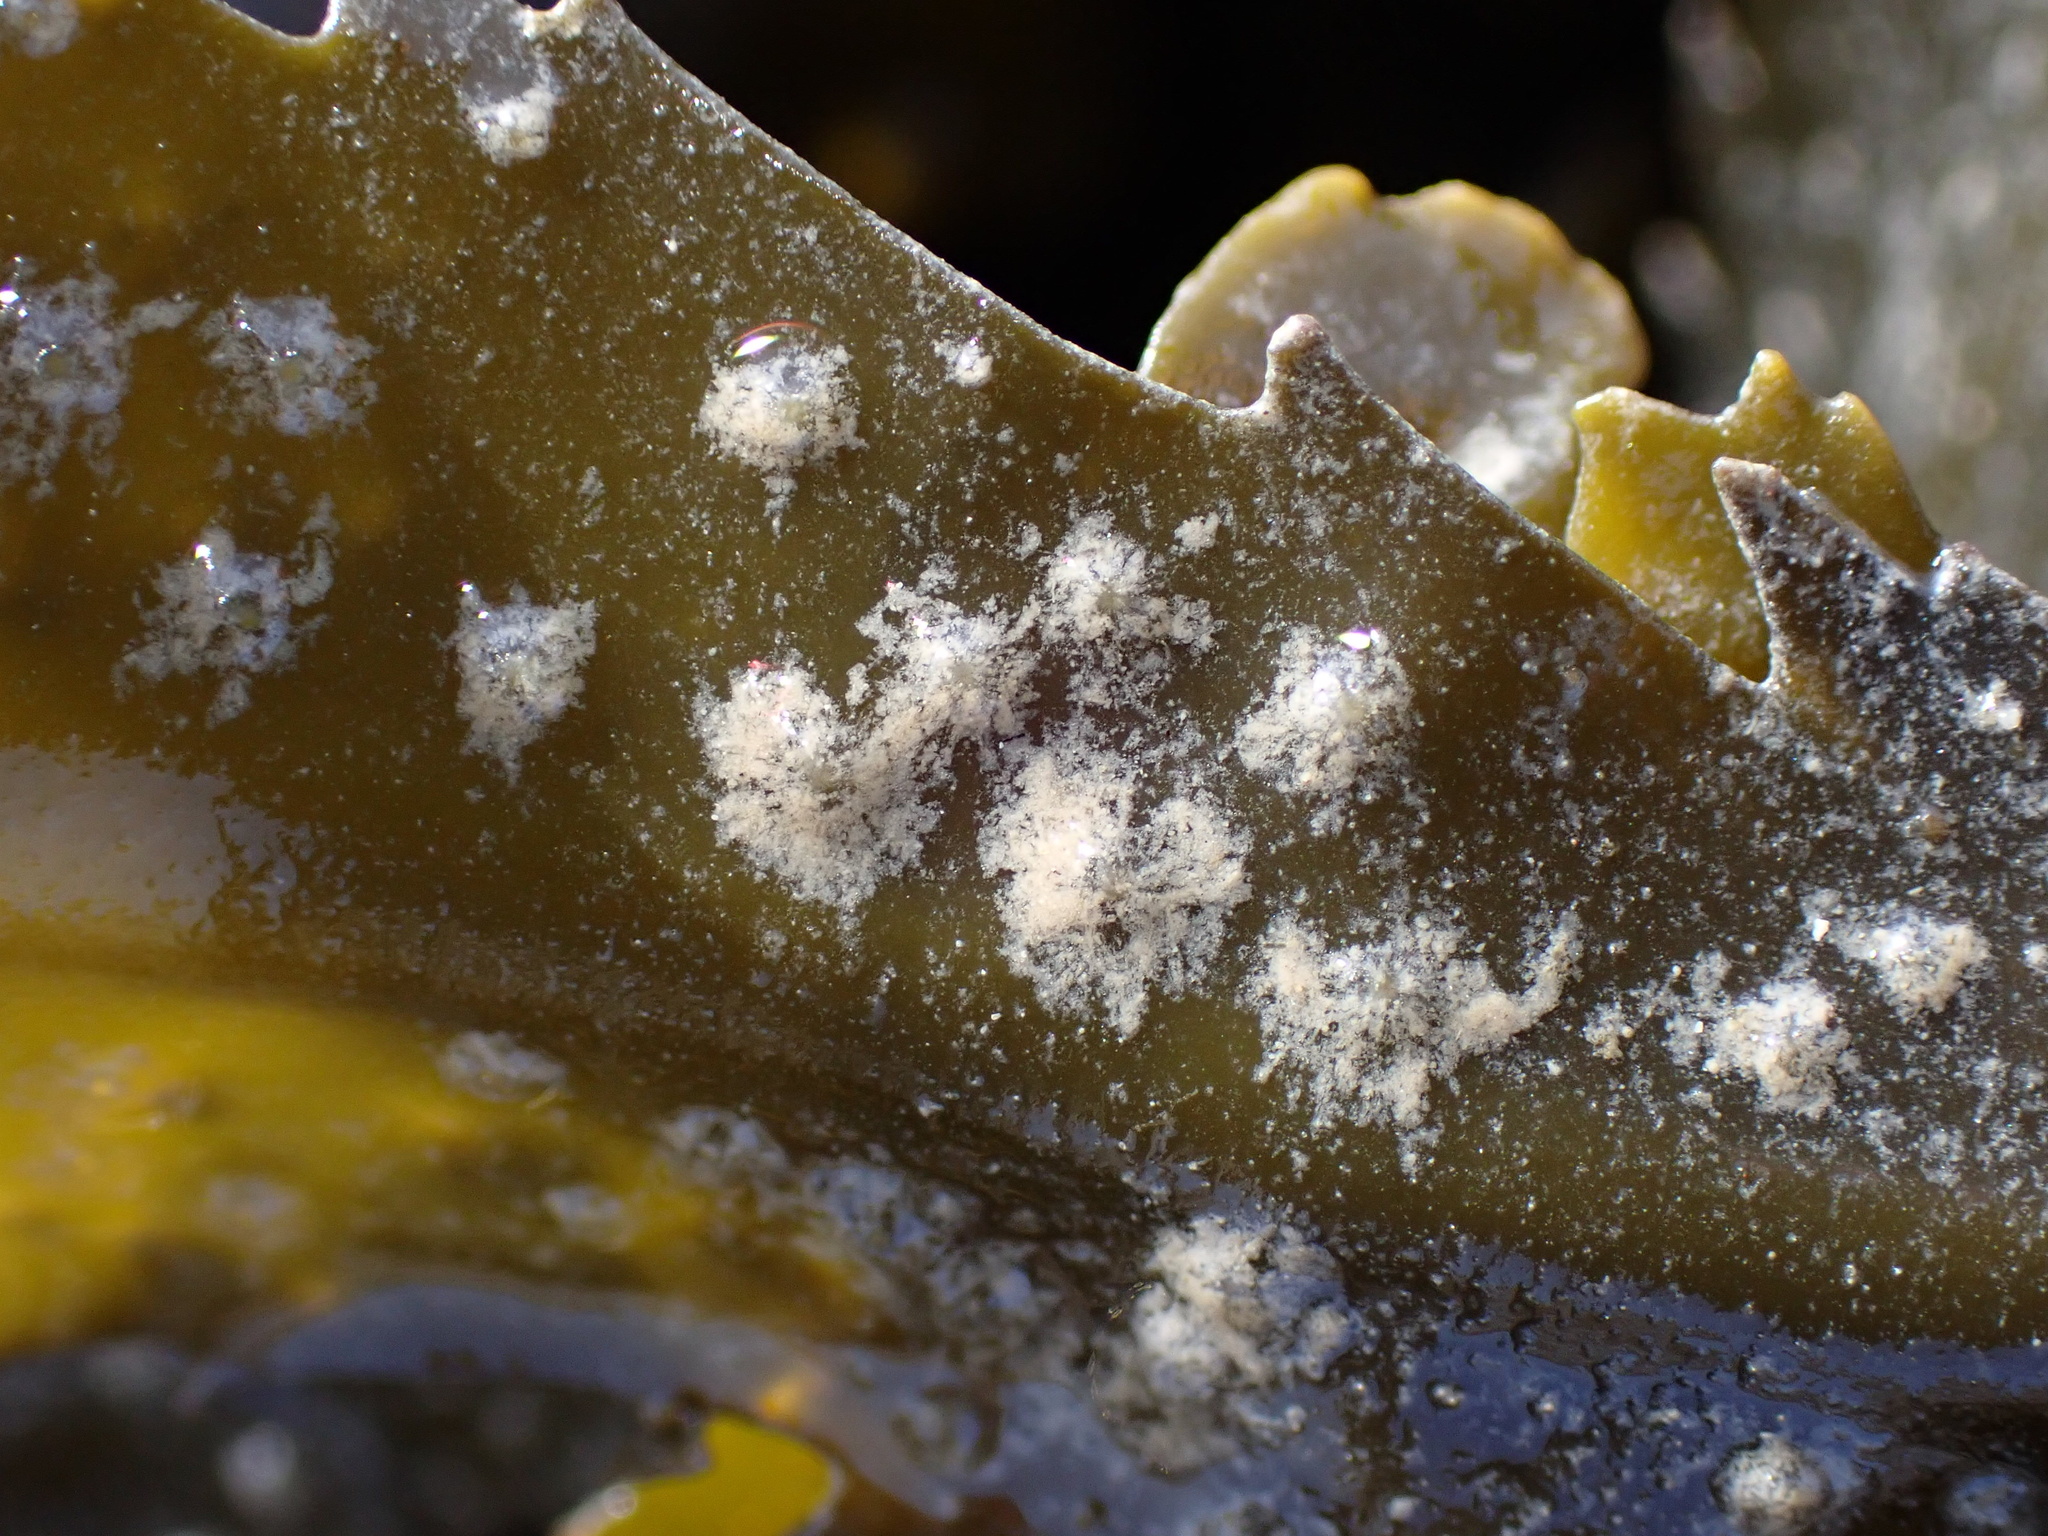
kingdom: Chromista
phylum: Ochrophyta
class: Phaeophyceae
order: Fucales
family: Fucaceae
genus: Fucus
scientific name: Fucus serratus
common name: Toothed wrack
